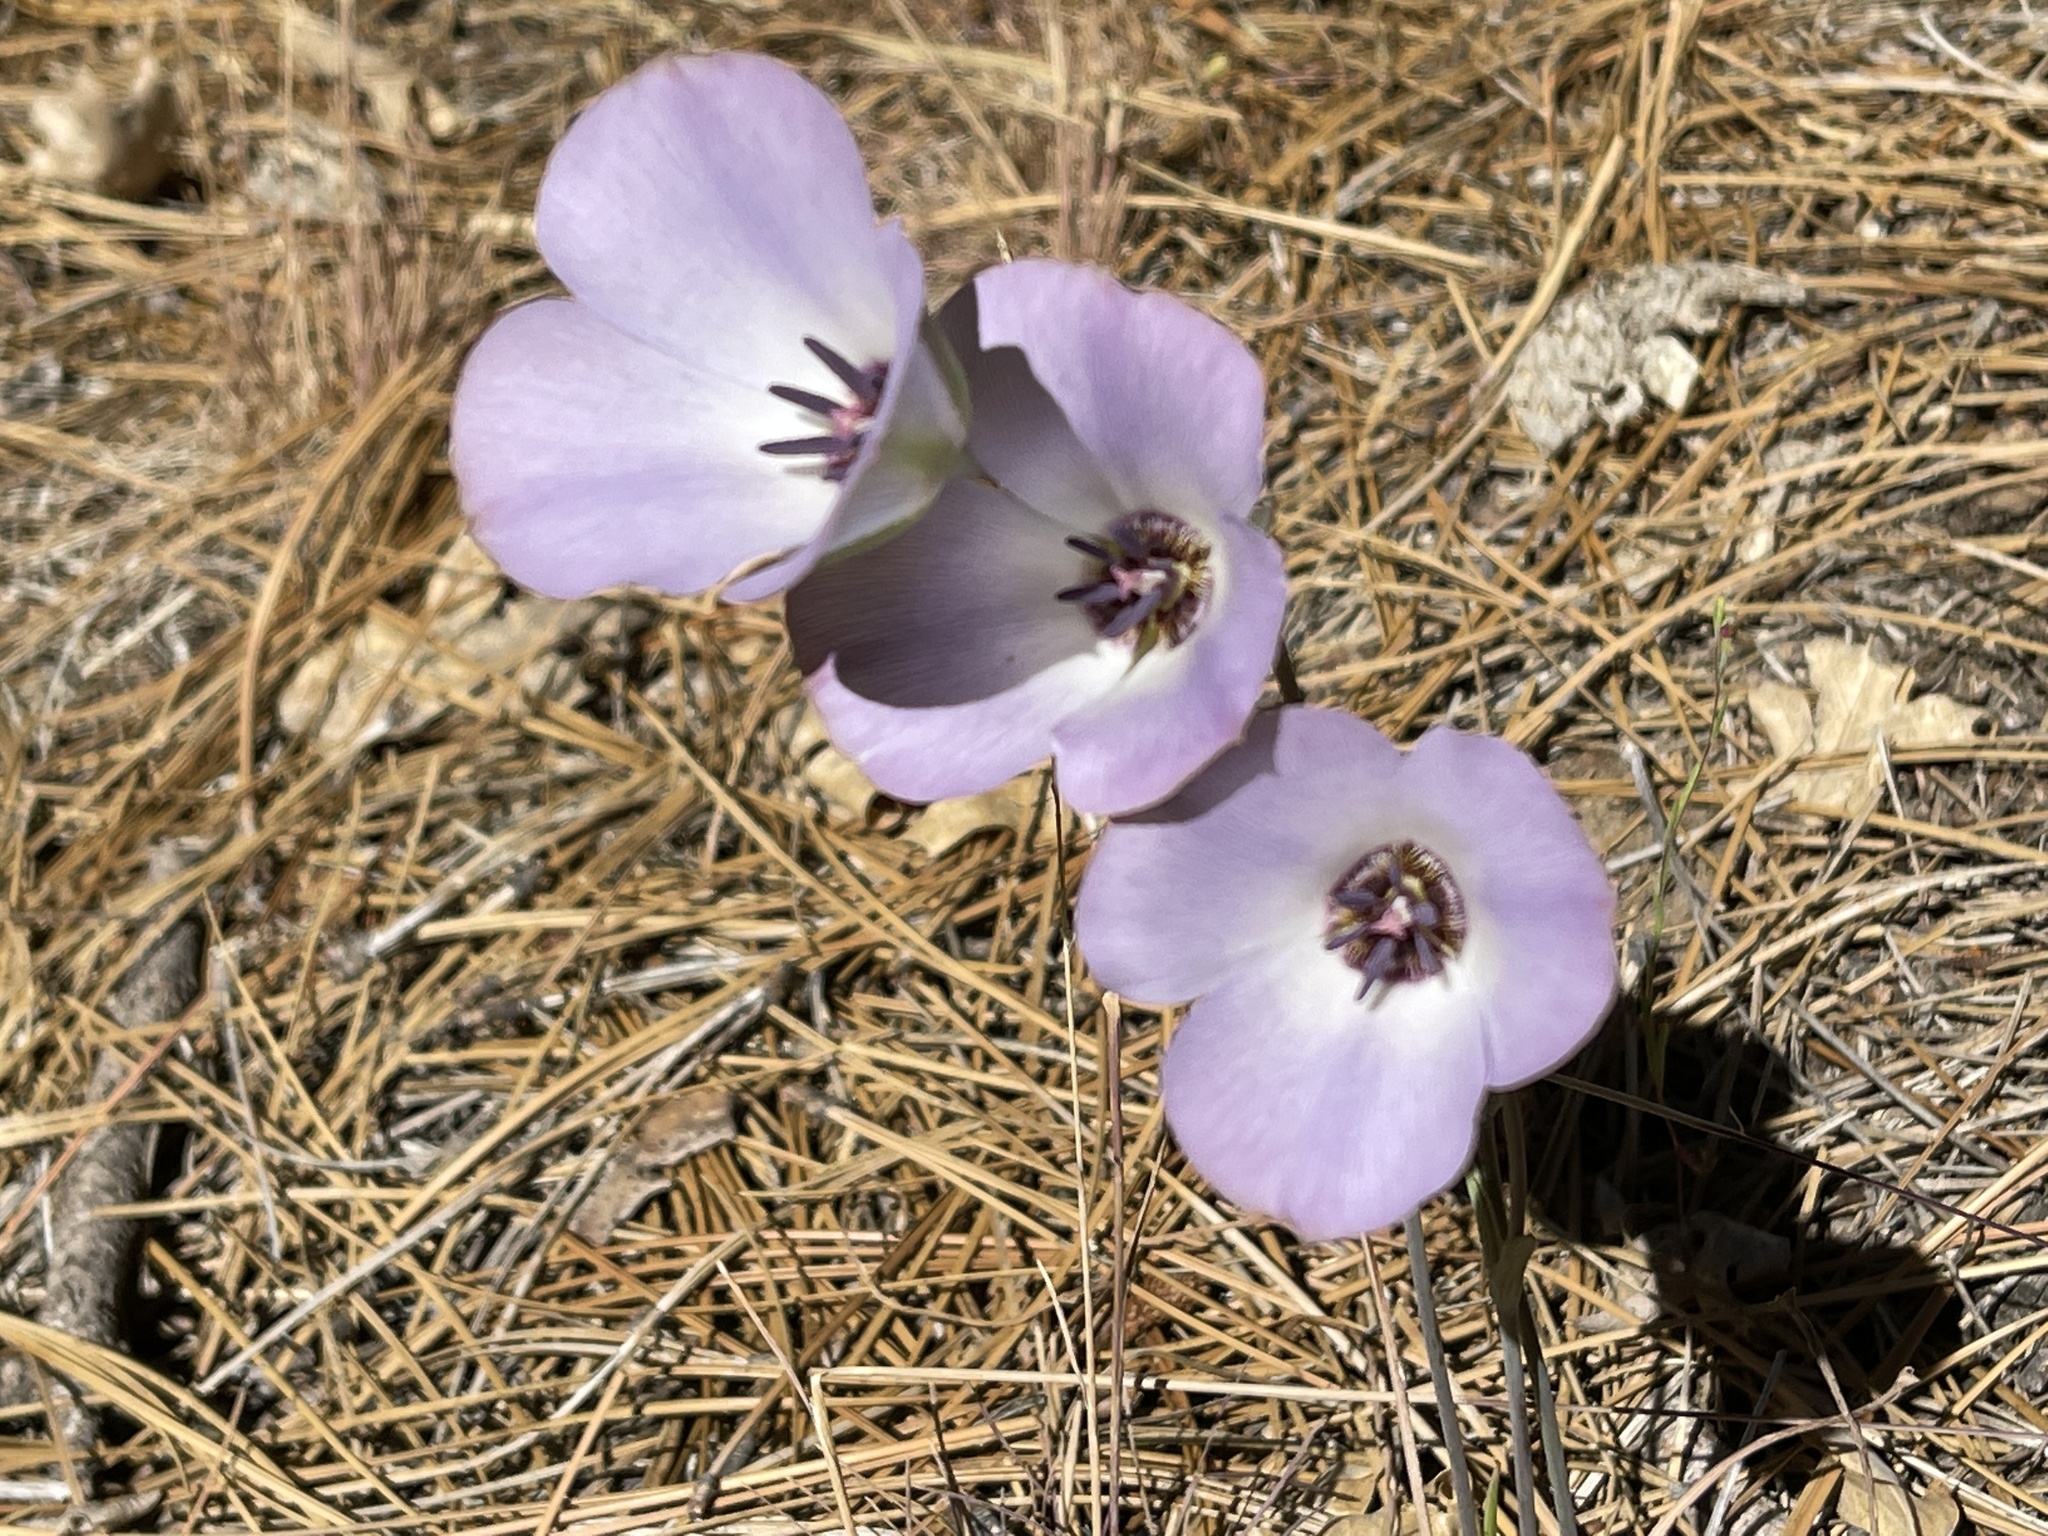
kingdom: Plantae
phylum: Tracheophyta
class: Liliopsida
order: Liliales
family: Liliaceae
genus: Calochortus
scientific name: Calochortus invenustus
